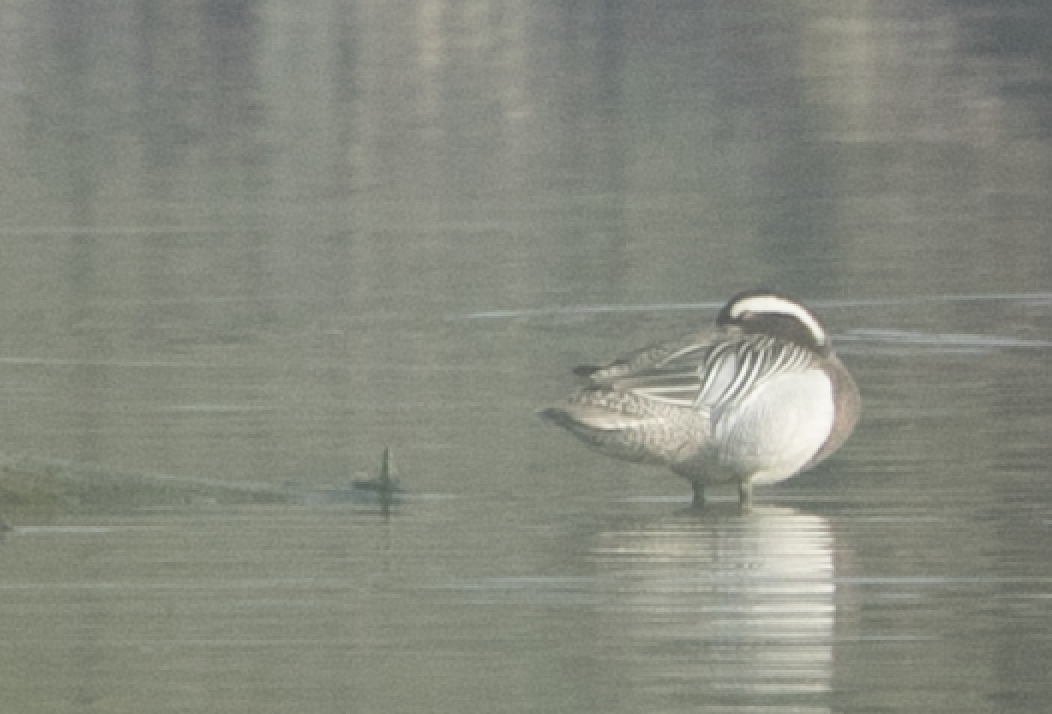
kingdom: Animalia
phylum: Chordata
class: Aves
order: Anseriformes
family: Anatidae
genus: Spatula
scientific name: Spatula querquedula
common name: Garganey
